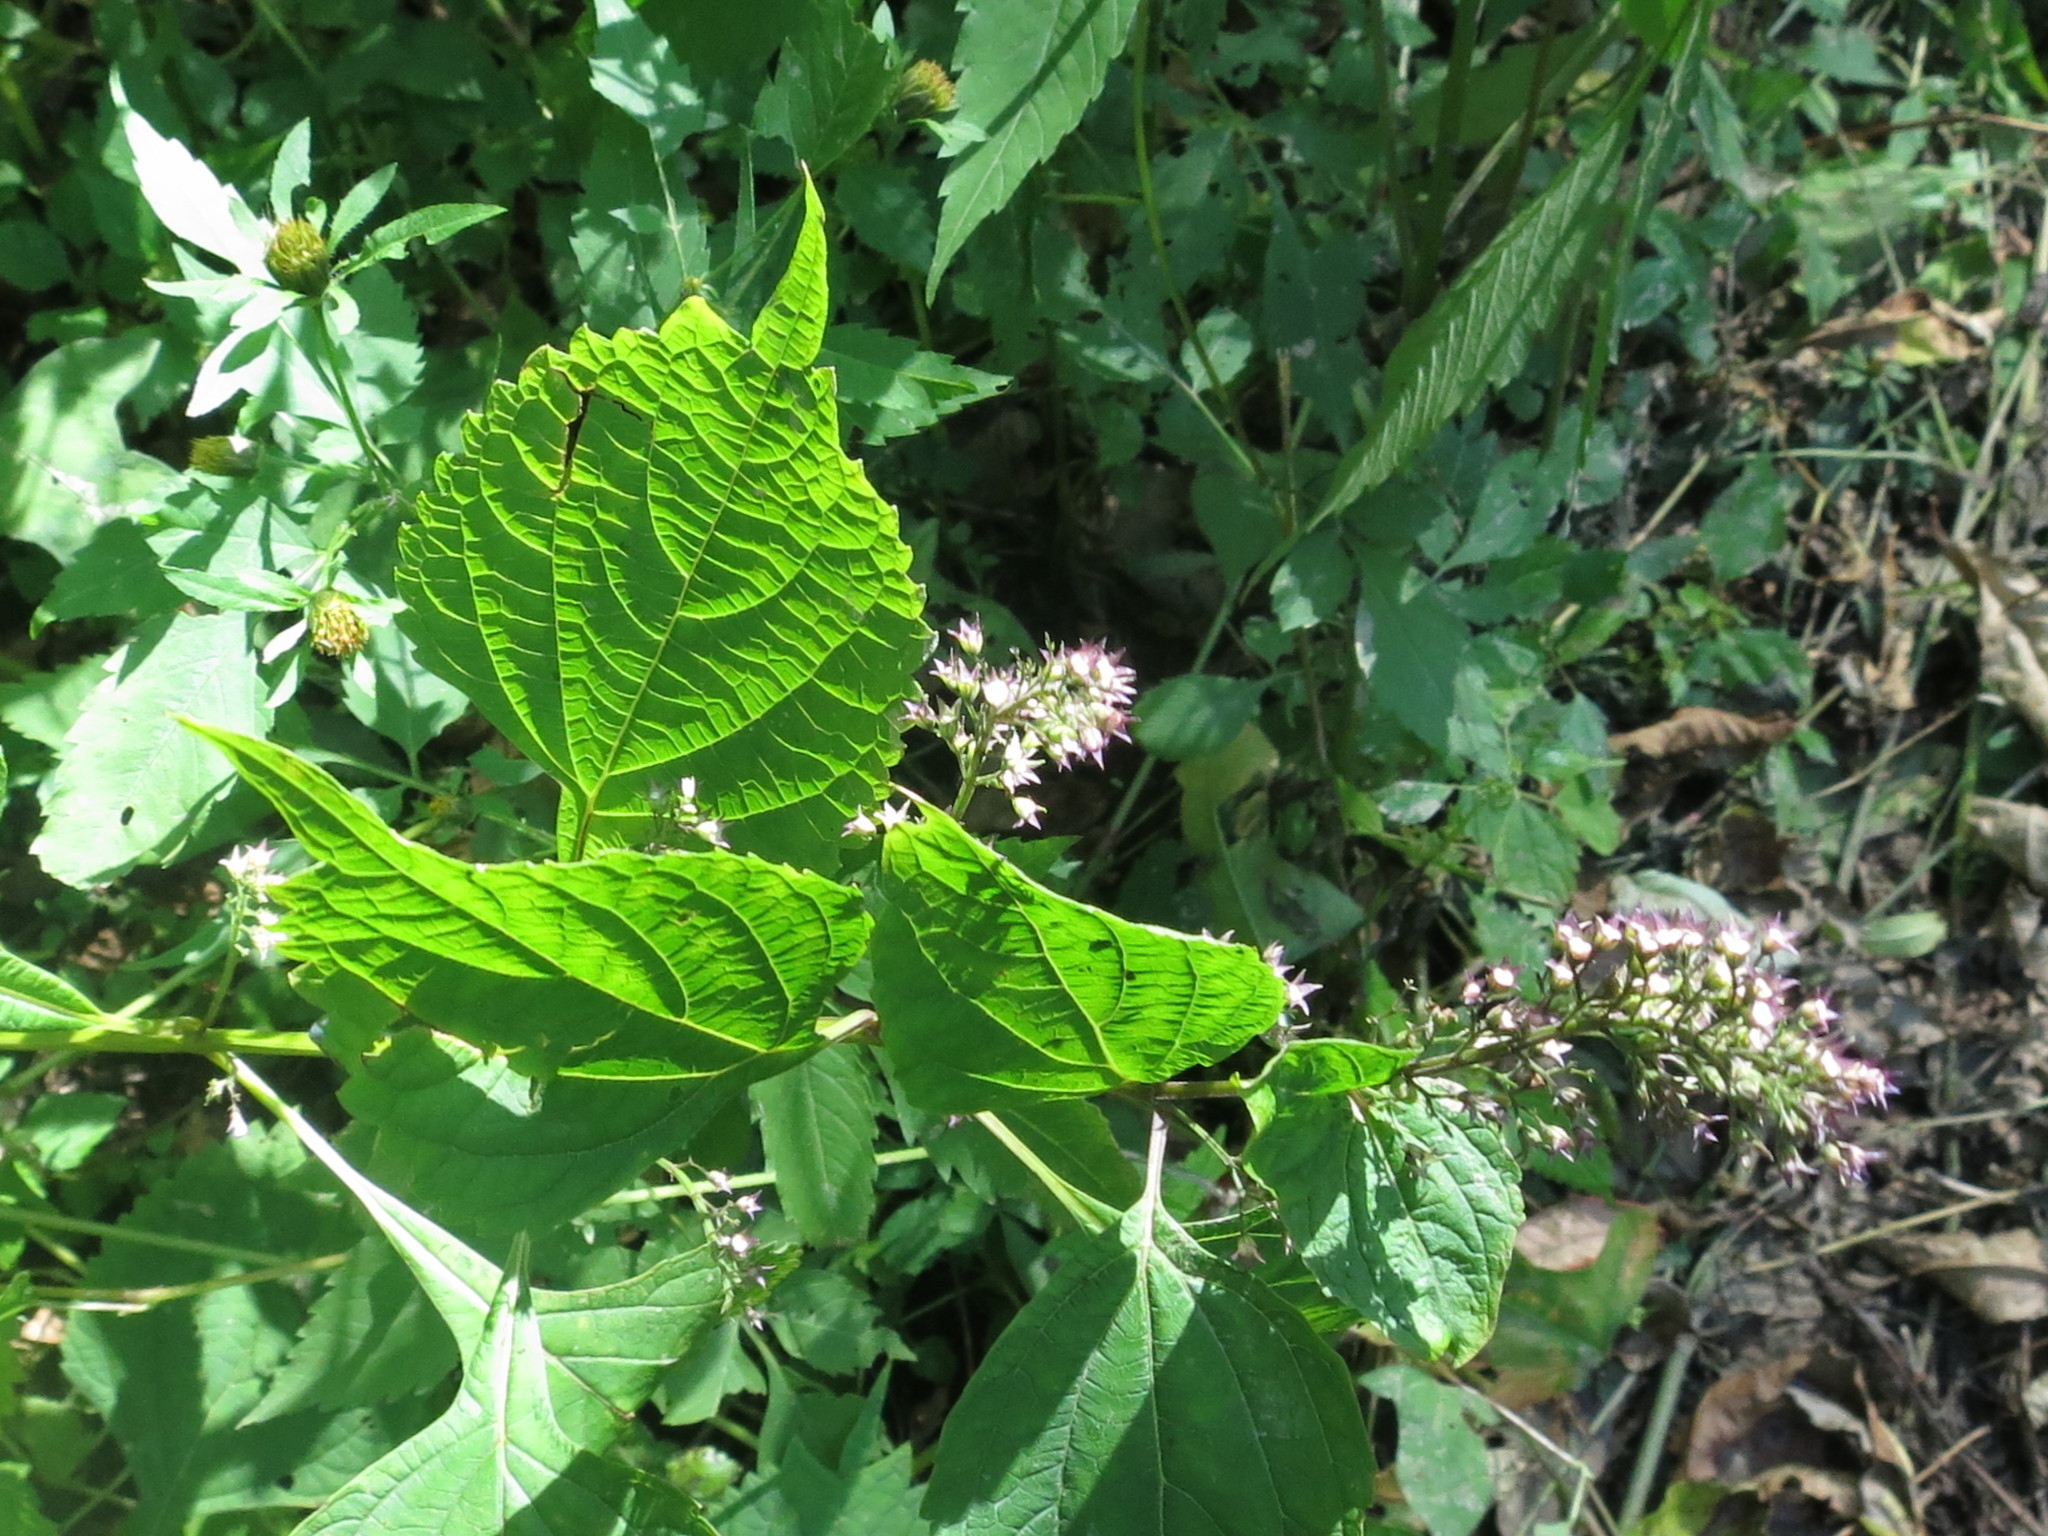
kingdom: Plantae
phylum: Tracheophyta
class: Magnoliopsida
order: Lamiales
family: Lamiaceae
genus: Isodon
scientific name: Isodon excisus
